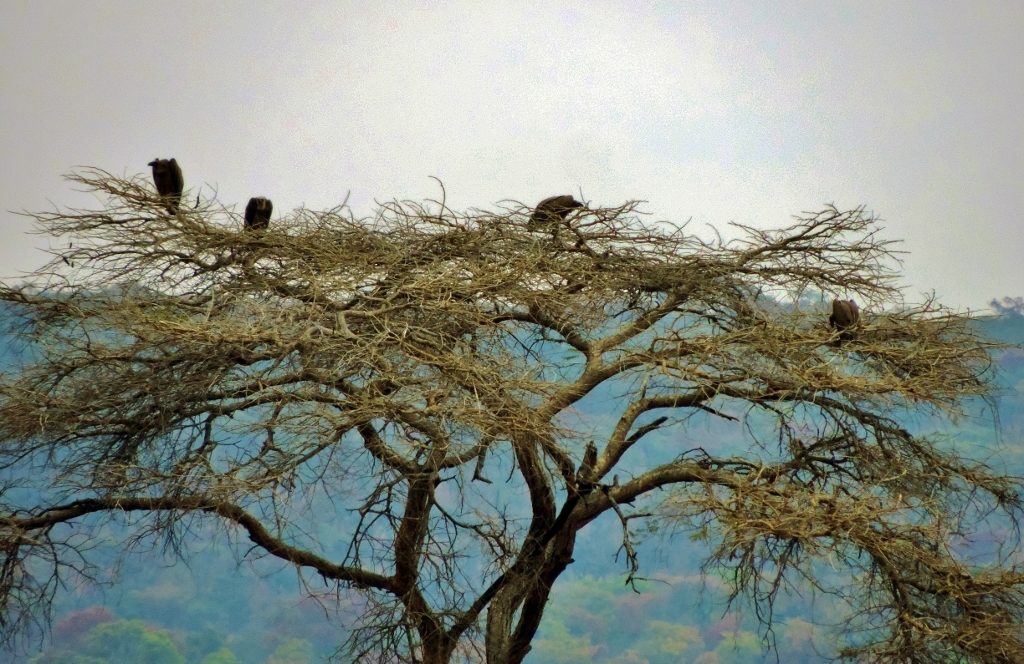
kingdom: Animalia
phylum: Chordata
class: Aves
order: Accipitriformes
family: Accipitridae
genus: Gyps
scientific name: Gyps africanus
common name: White-backed vulture
